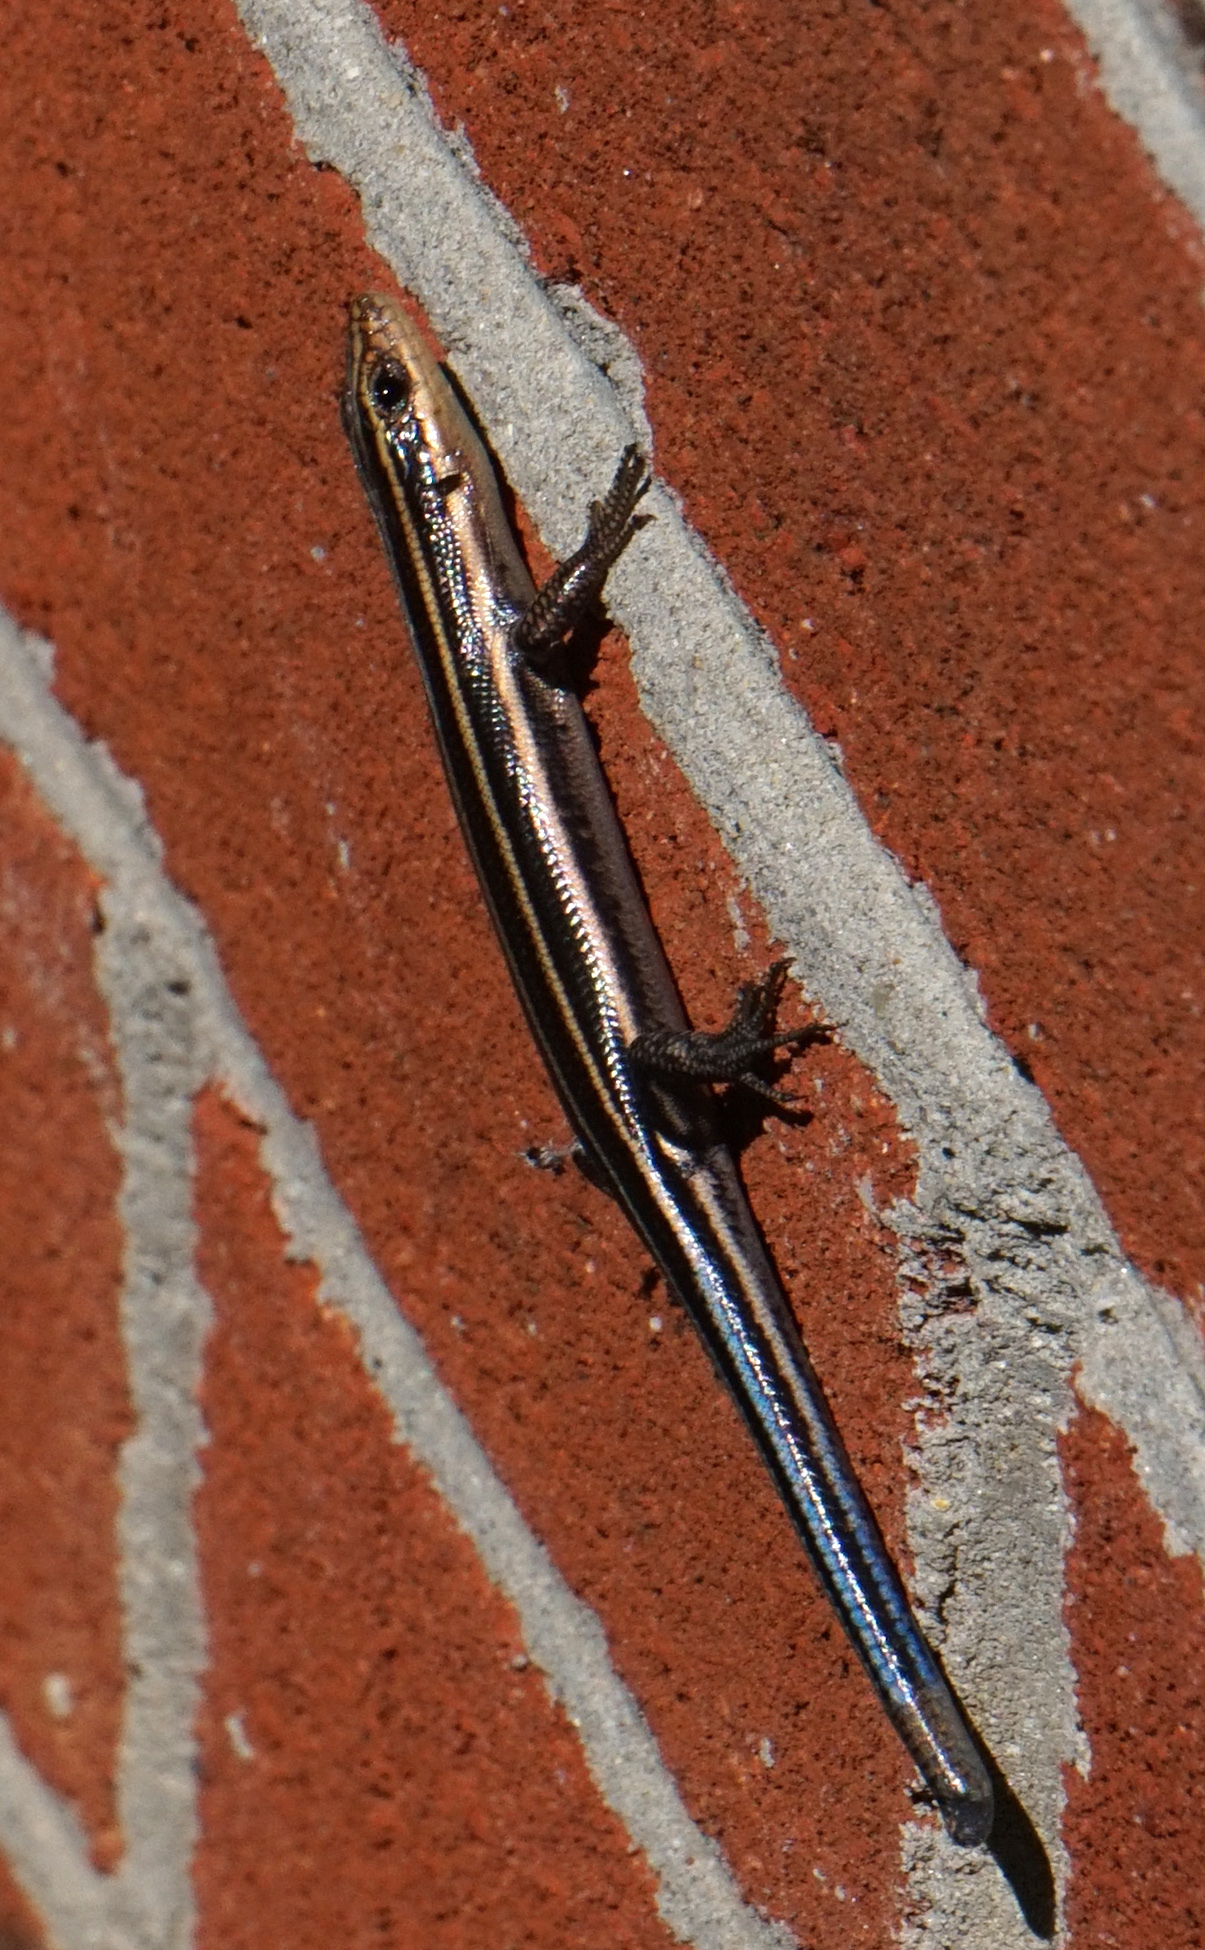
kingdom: Animalia
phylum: Chordata
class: Squamata
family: Scincidae
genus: Plestiodon
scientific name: Plestiodon fasciatus
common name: Five-lined skink
